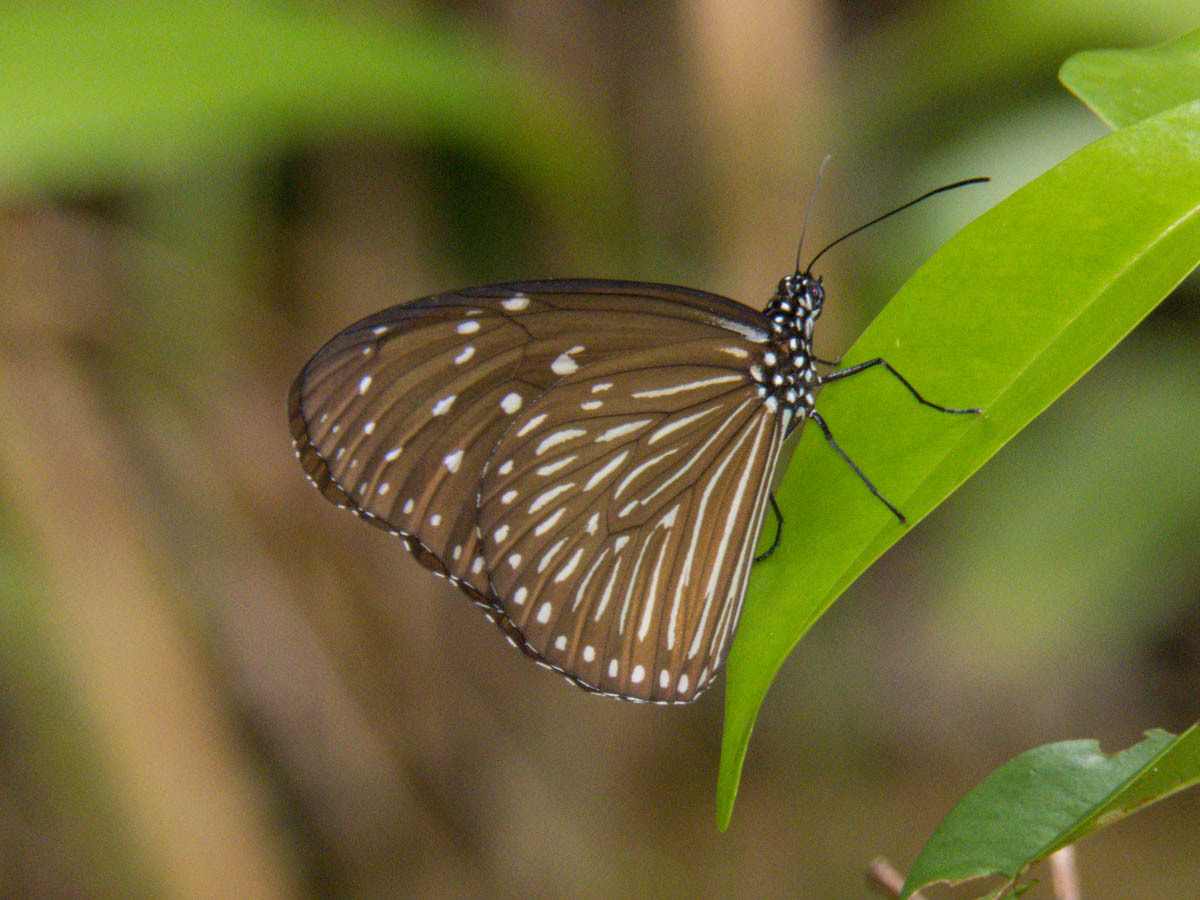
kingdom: Animalia
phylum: Arthropoda
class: Insecta
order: Lepidoptera
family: Nymphalidae
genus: Euploea
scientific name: Euploea mulciber
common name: Striped blue crow butterfly
